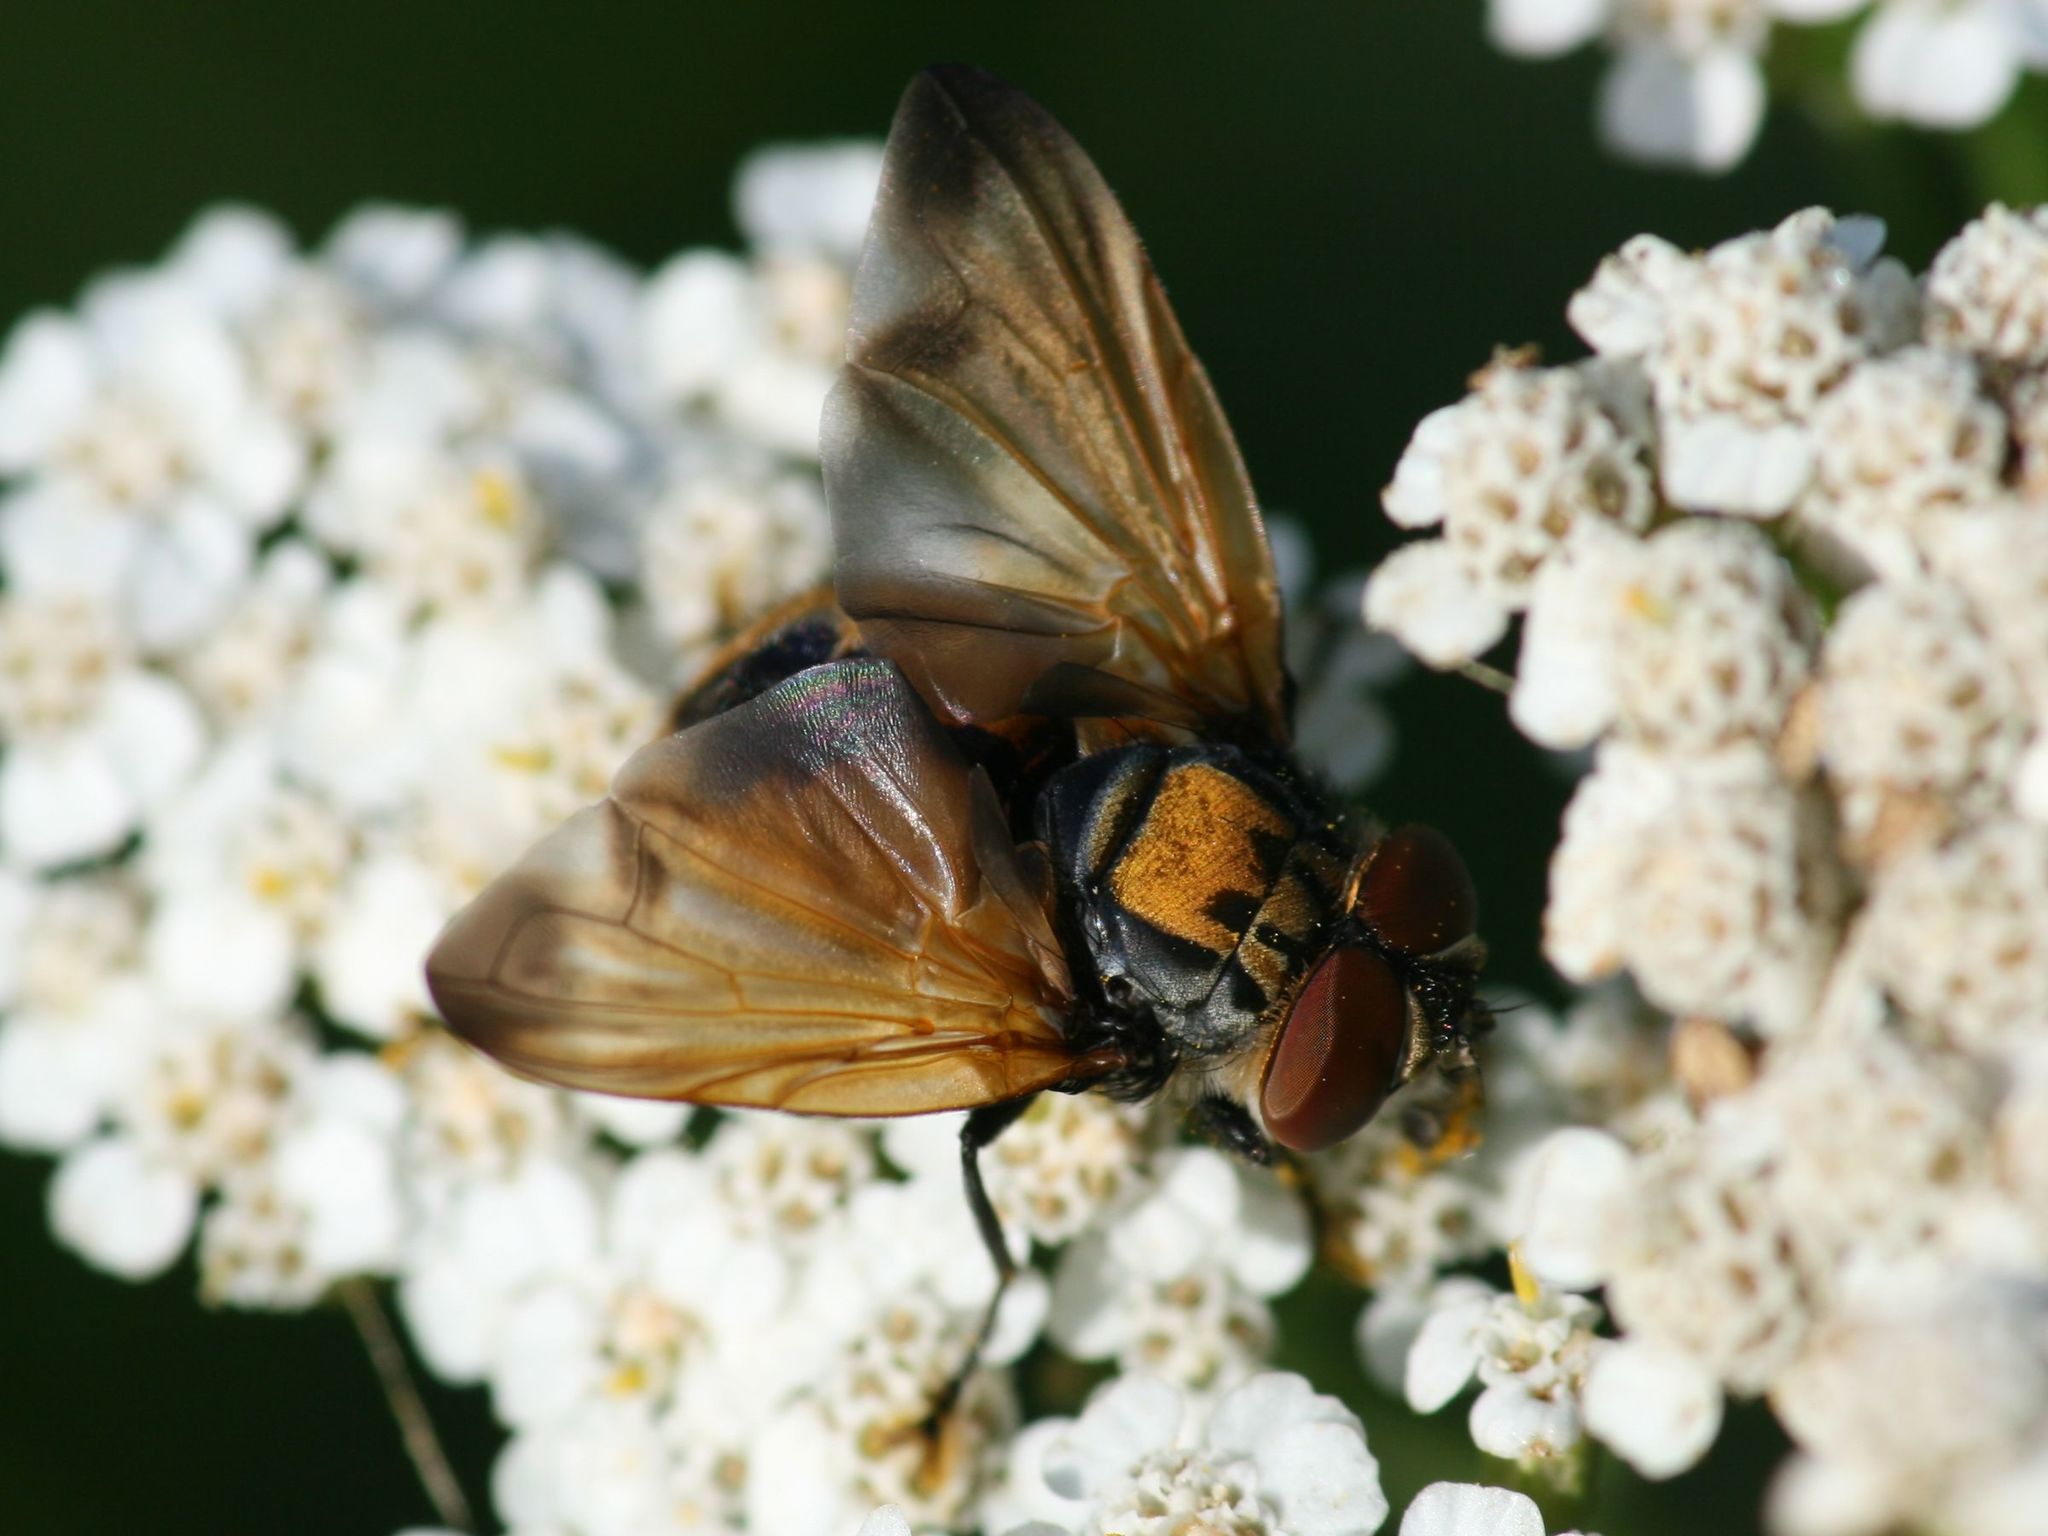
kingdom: Animalia
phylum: Arthropoda
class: Insecta
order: Diptera
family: Tachinidae
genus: Phasia
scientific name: Phasia aurigera
